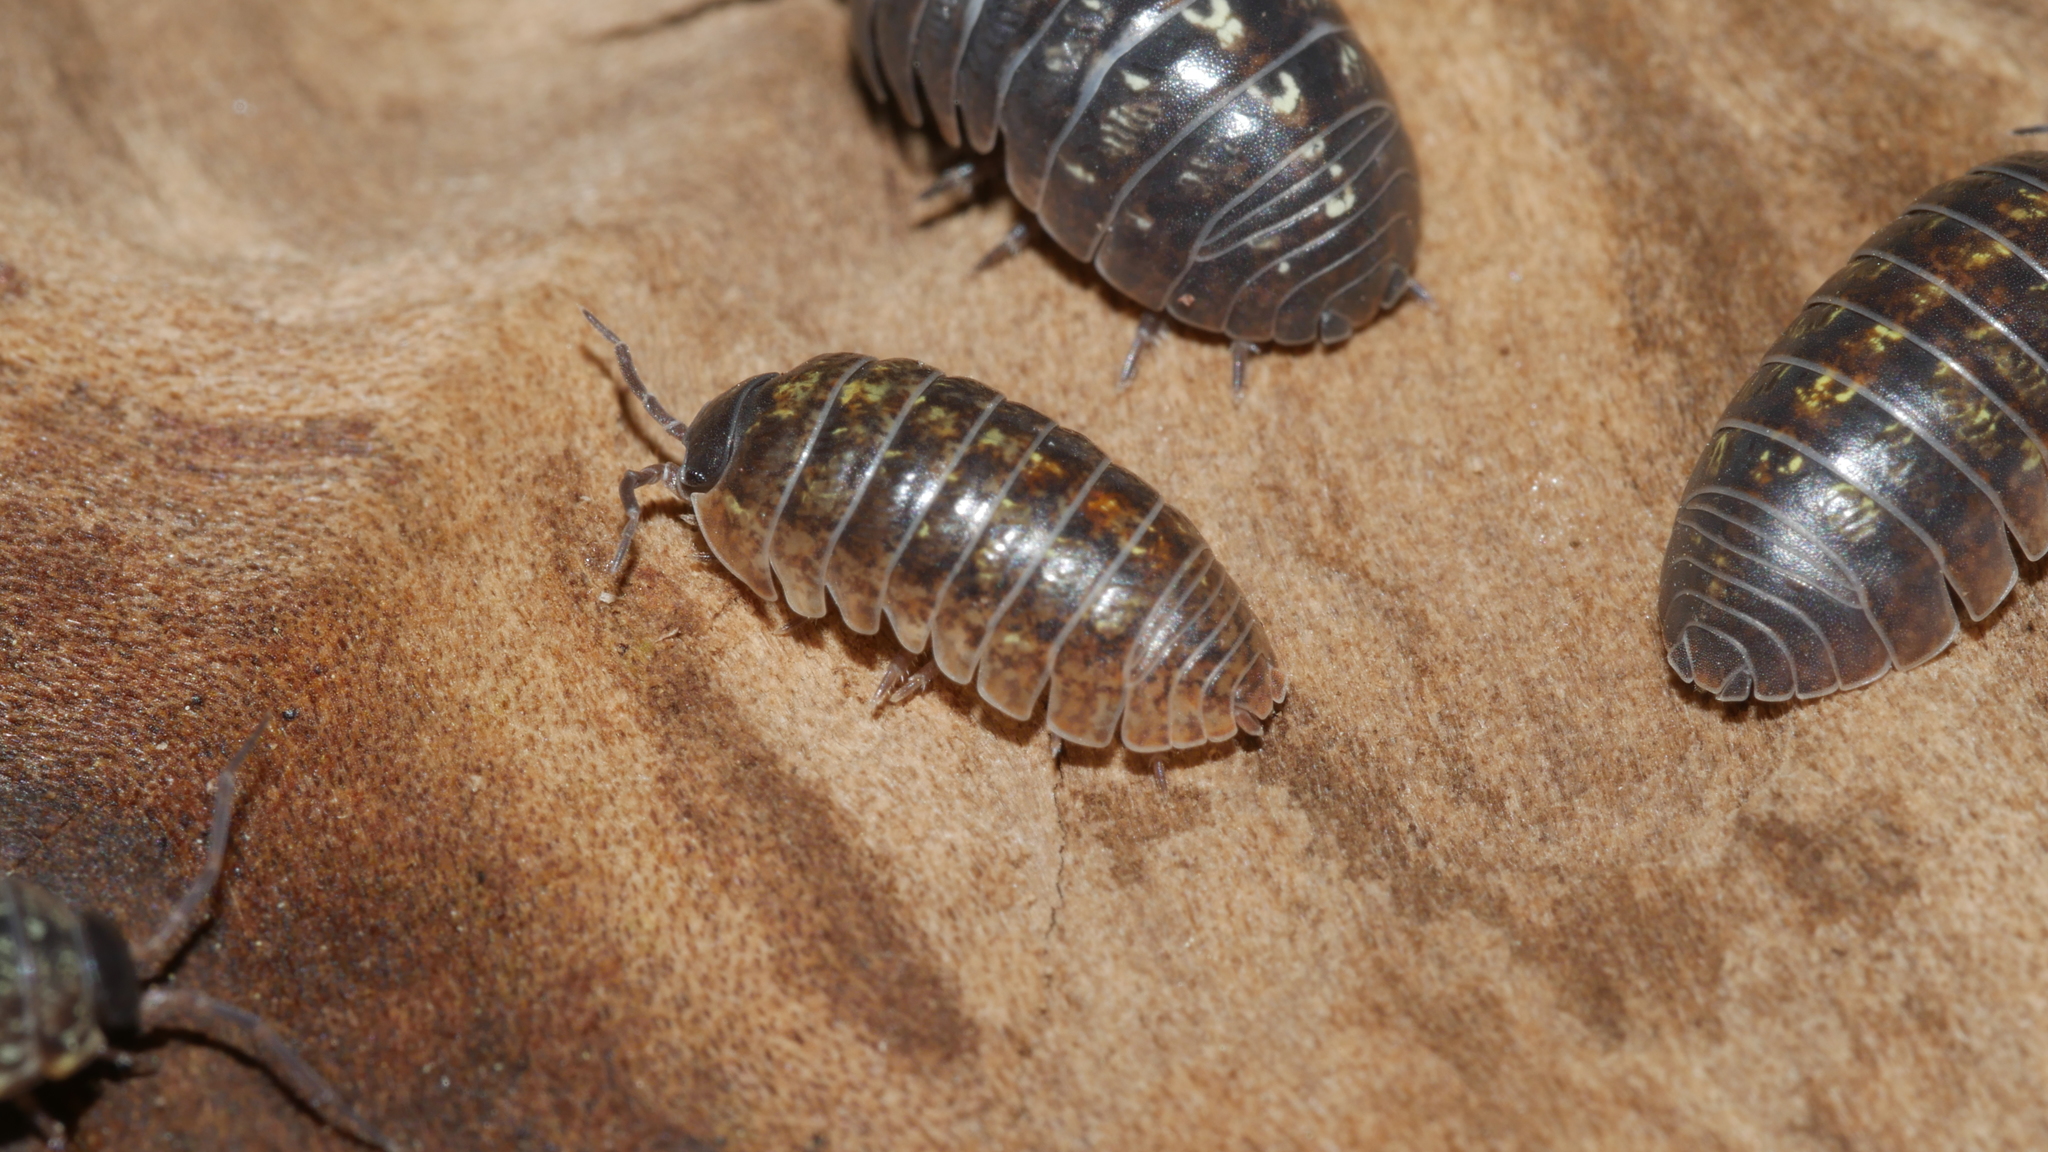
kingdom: Animalia
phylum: Arthropoda
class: Malacostraca
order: Isopoda
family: Armadillidiidae
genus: Armadillidium
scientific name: Armadillidium vulgare
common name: Common pill woodlouse
